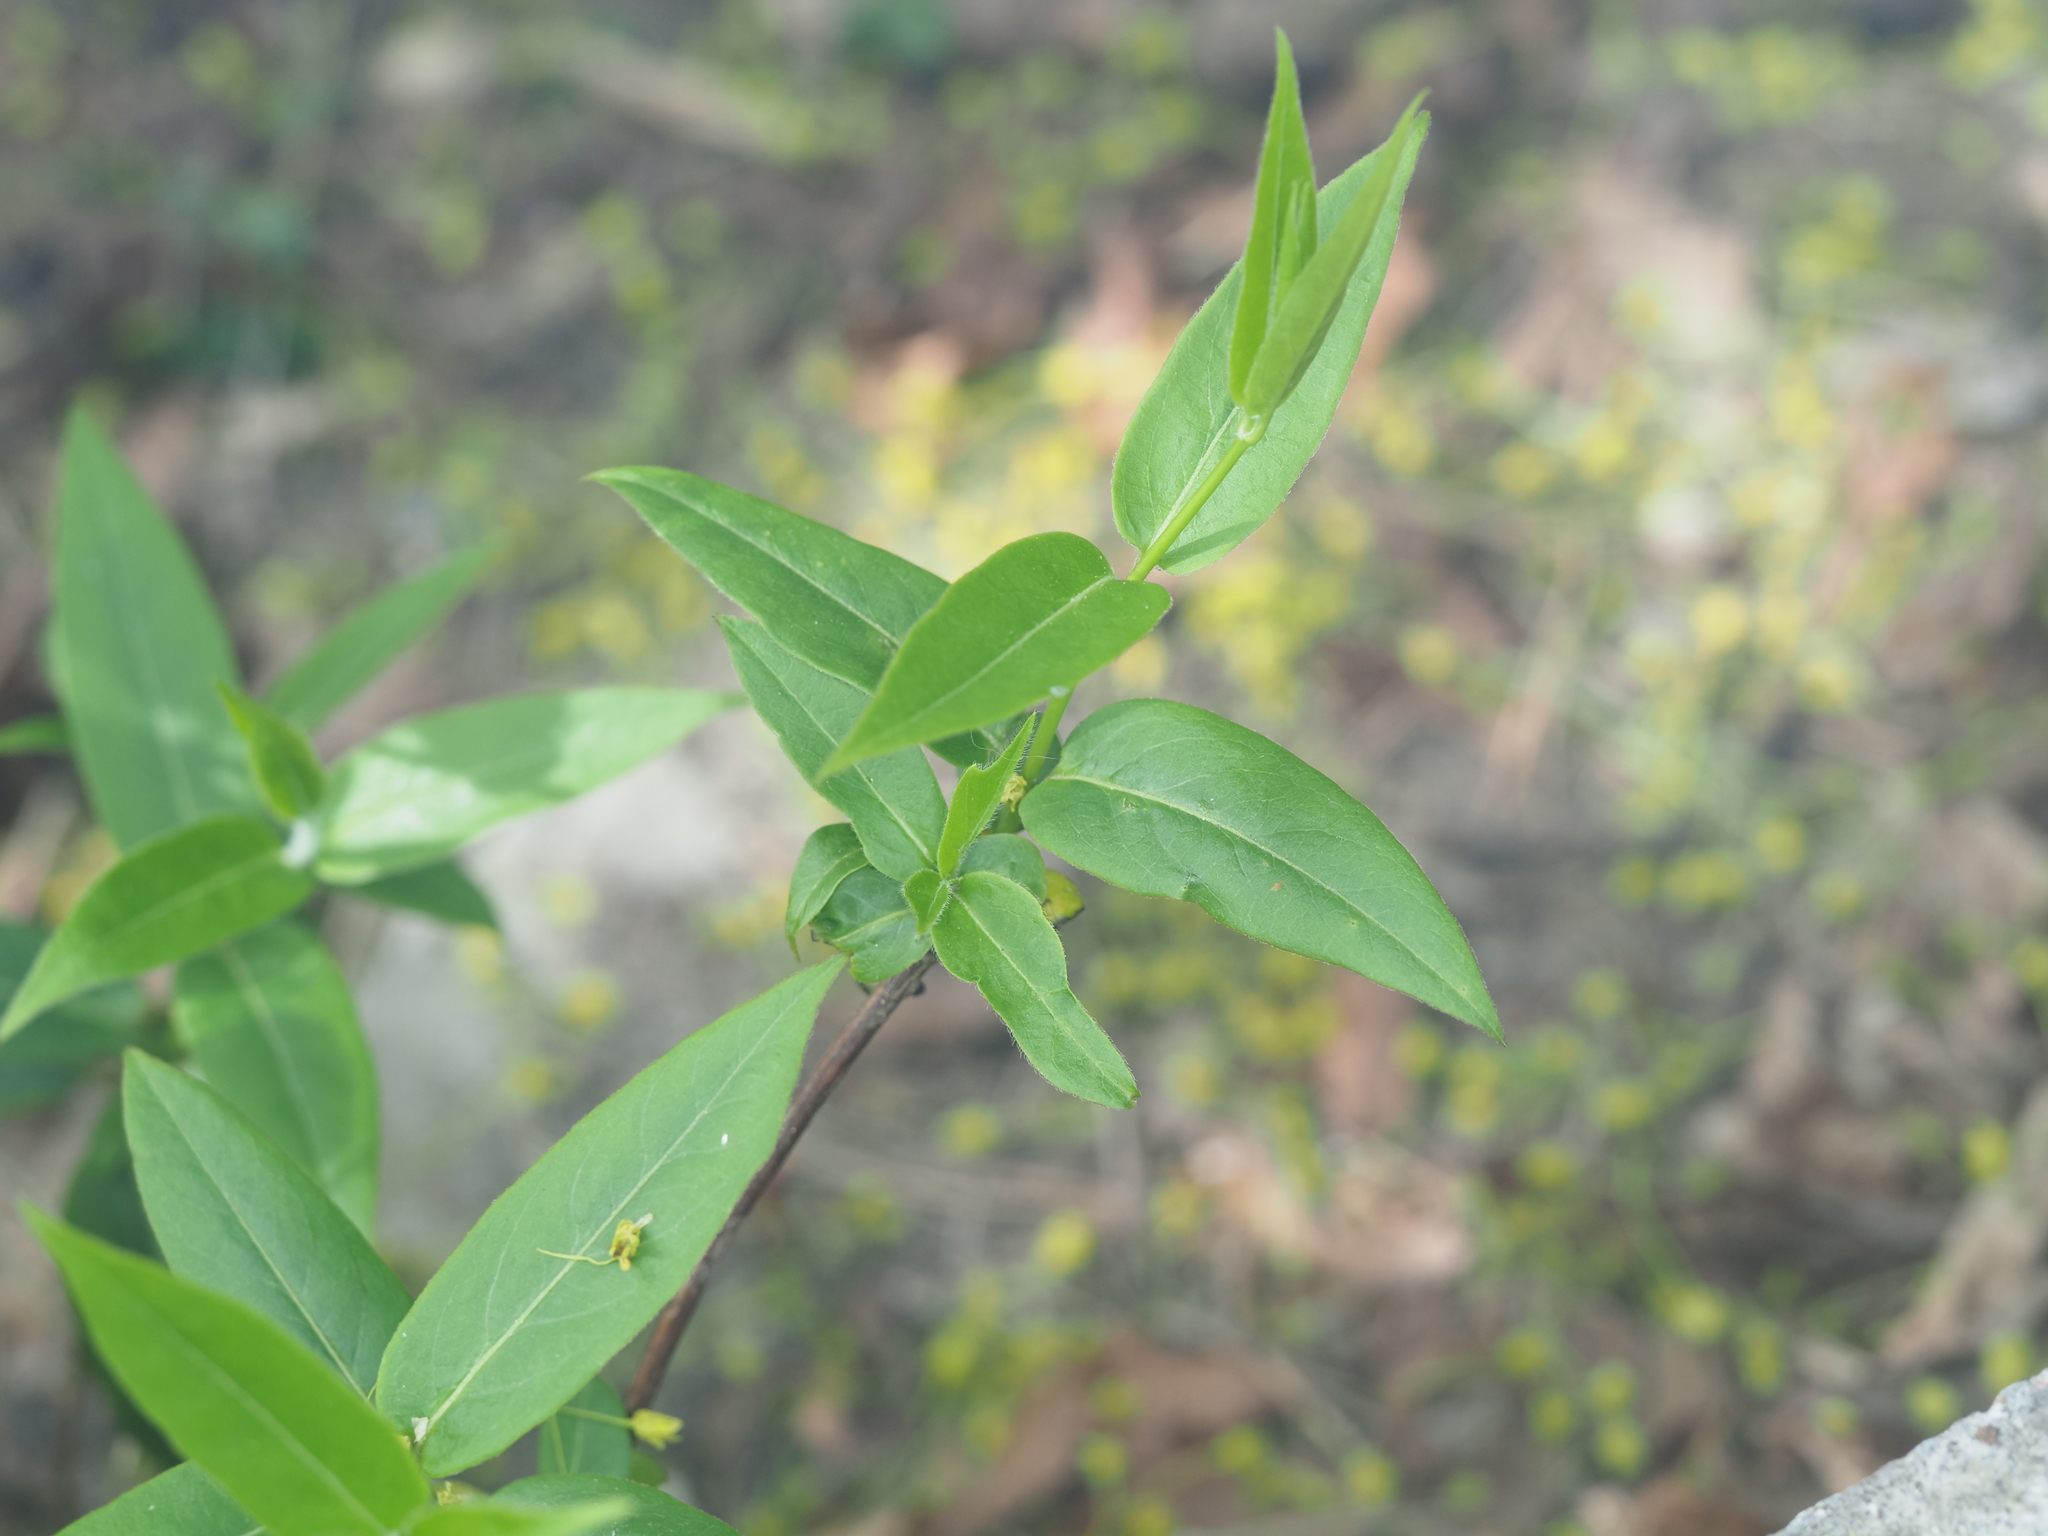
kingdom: Plantae
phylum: Tracheophyta
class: Magnoliopsida
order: Dipsacales
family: Caprifoliaceae
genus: Lonicera
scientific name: Lonicera acuminata
